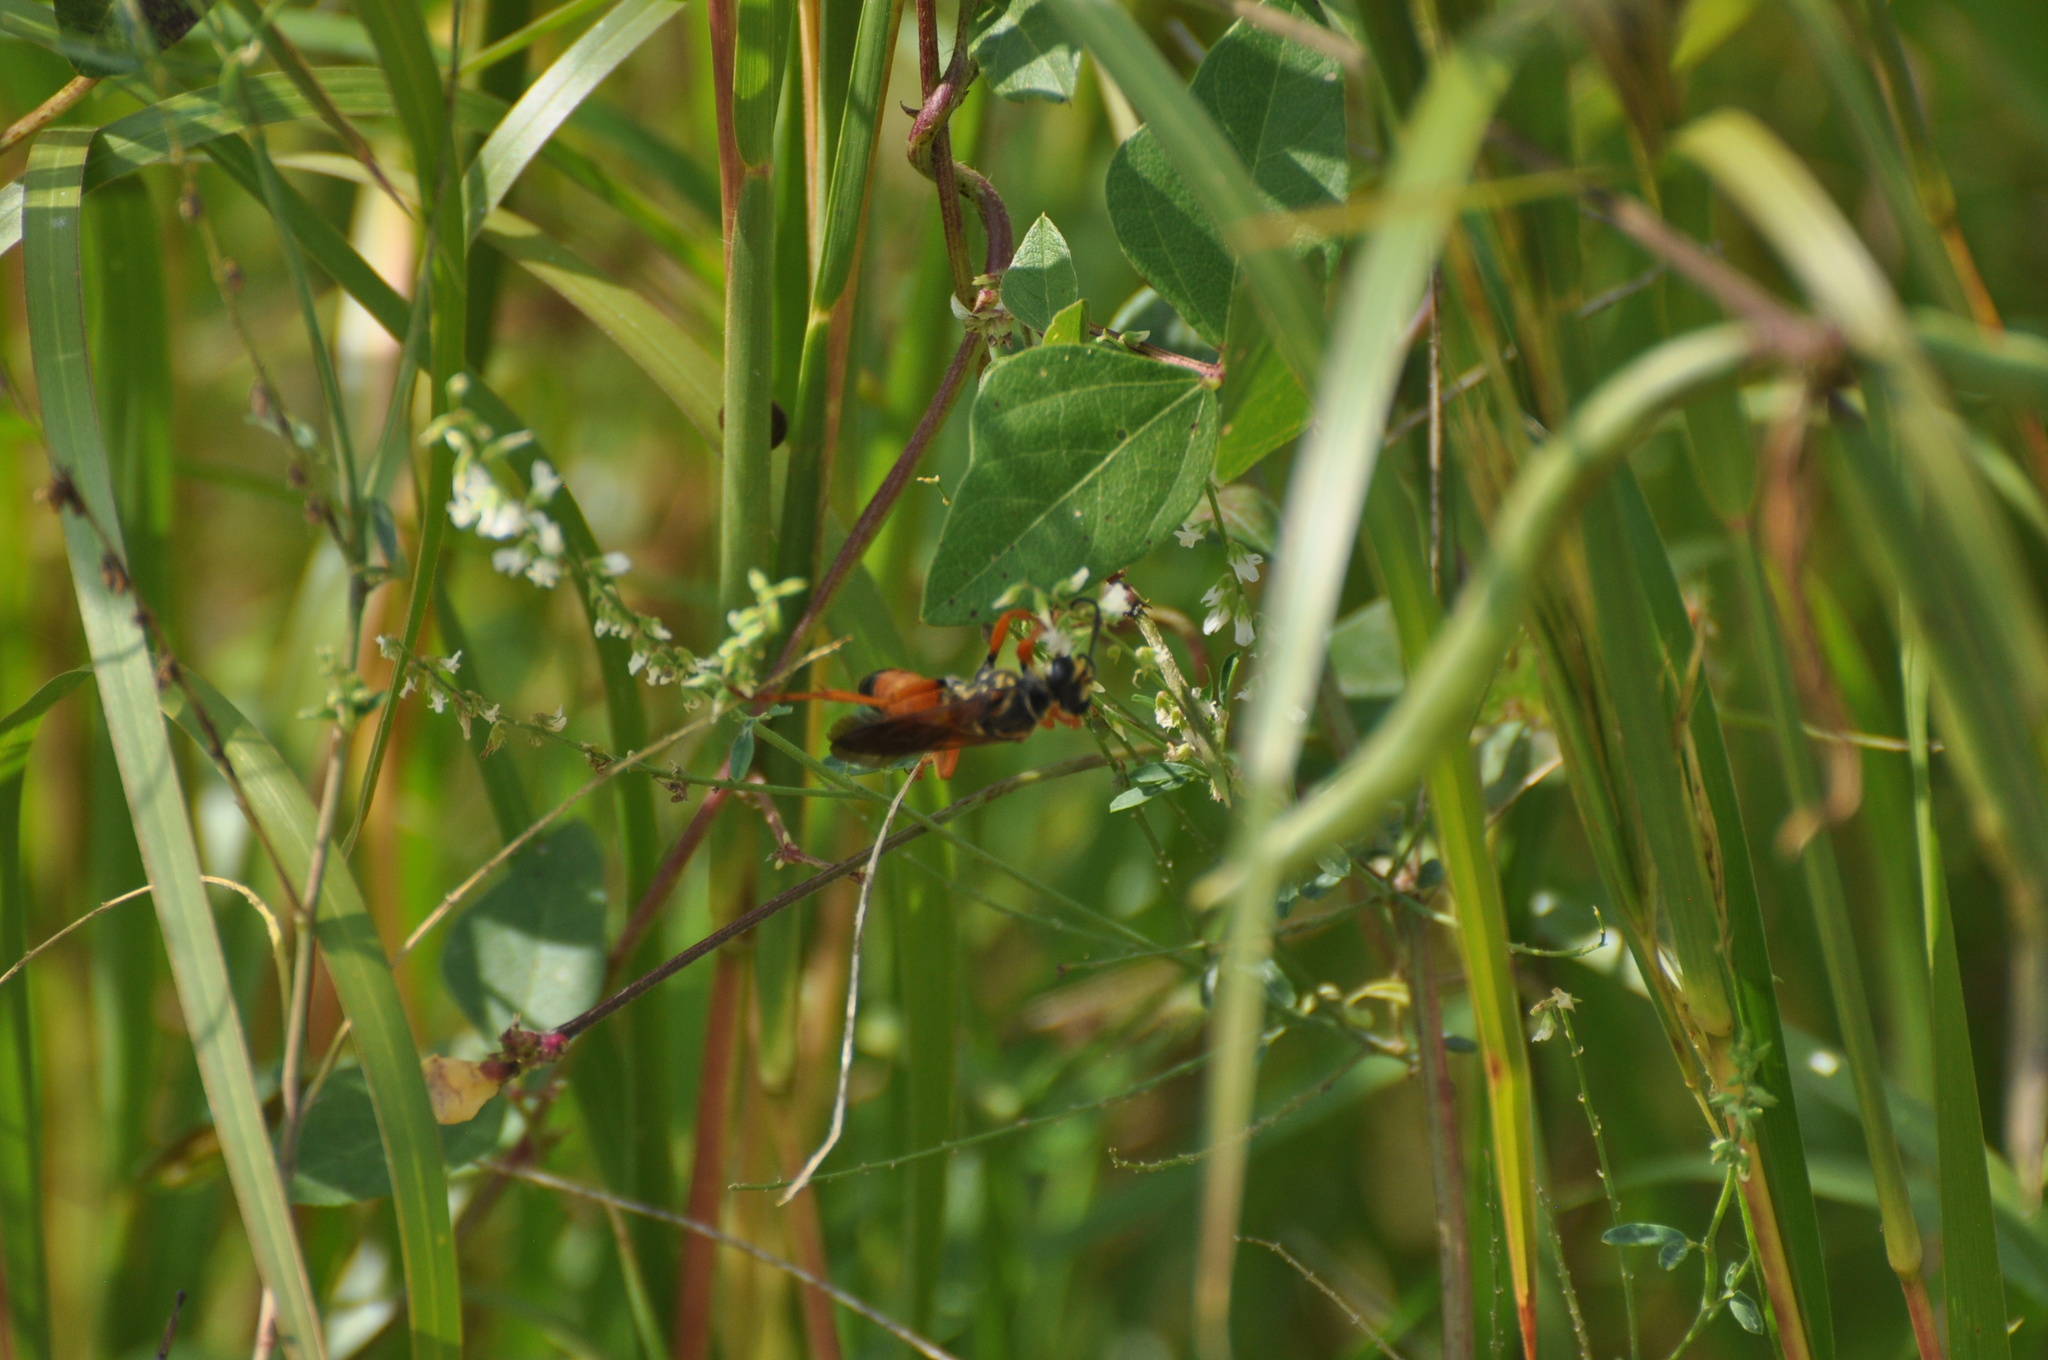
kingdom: Animalia
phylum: Arthropoda
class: Insecta
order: Hymenoptera
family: Sphecidae
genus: Sphex
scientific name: Sphex ichneumoneus
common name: Great golden digger wasp
